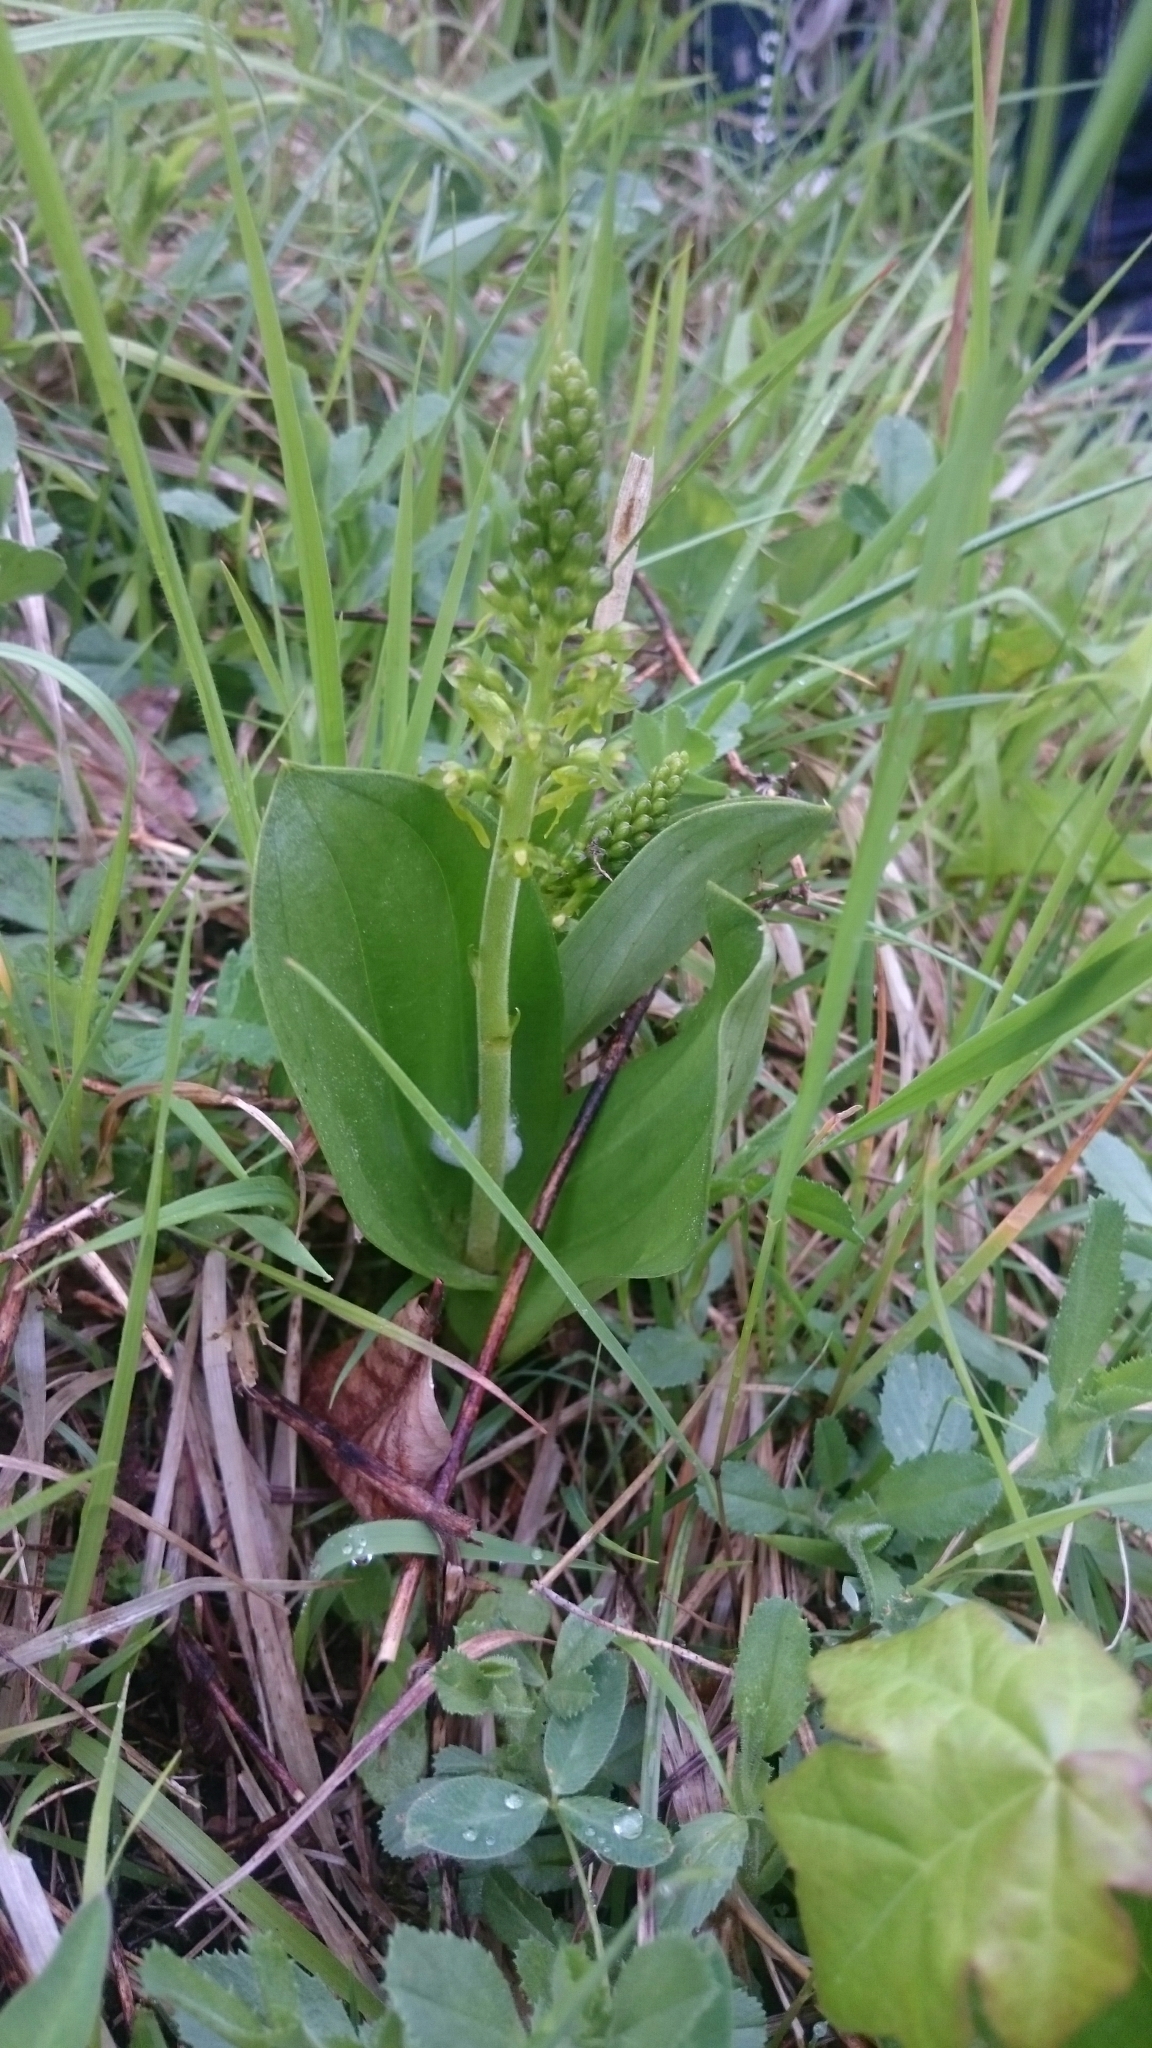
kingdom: Plantae
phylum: Tracheophyta
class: Liliopsida
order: Asparagales
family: Orchidaceae
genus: Neottia
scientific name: Neottia ovata
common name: Common twayblade
